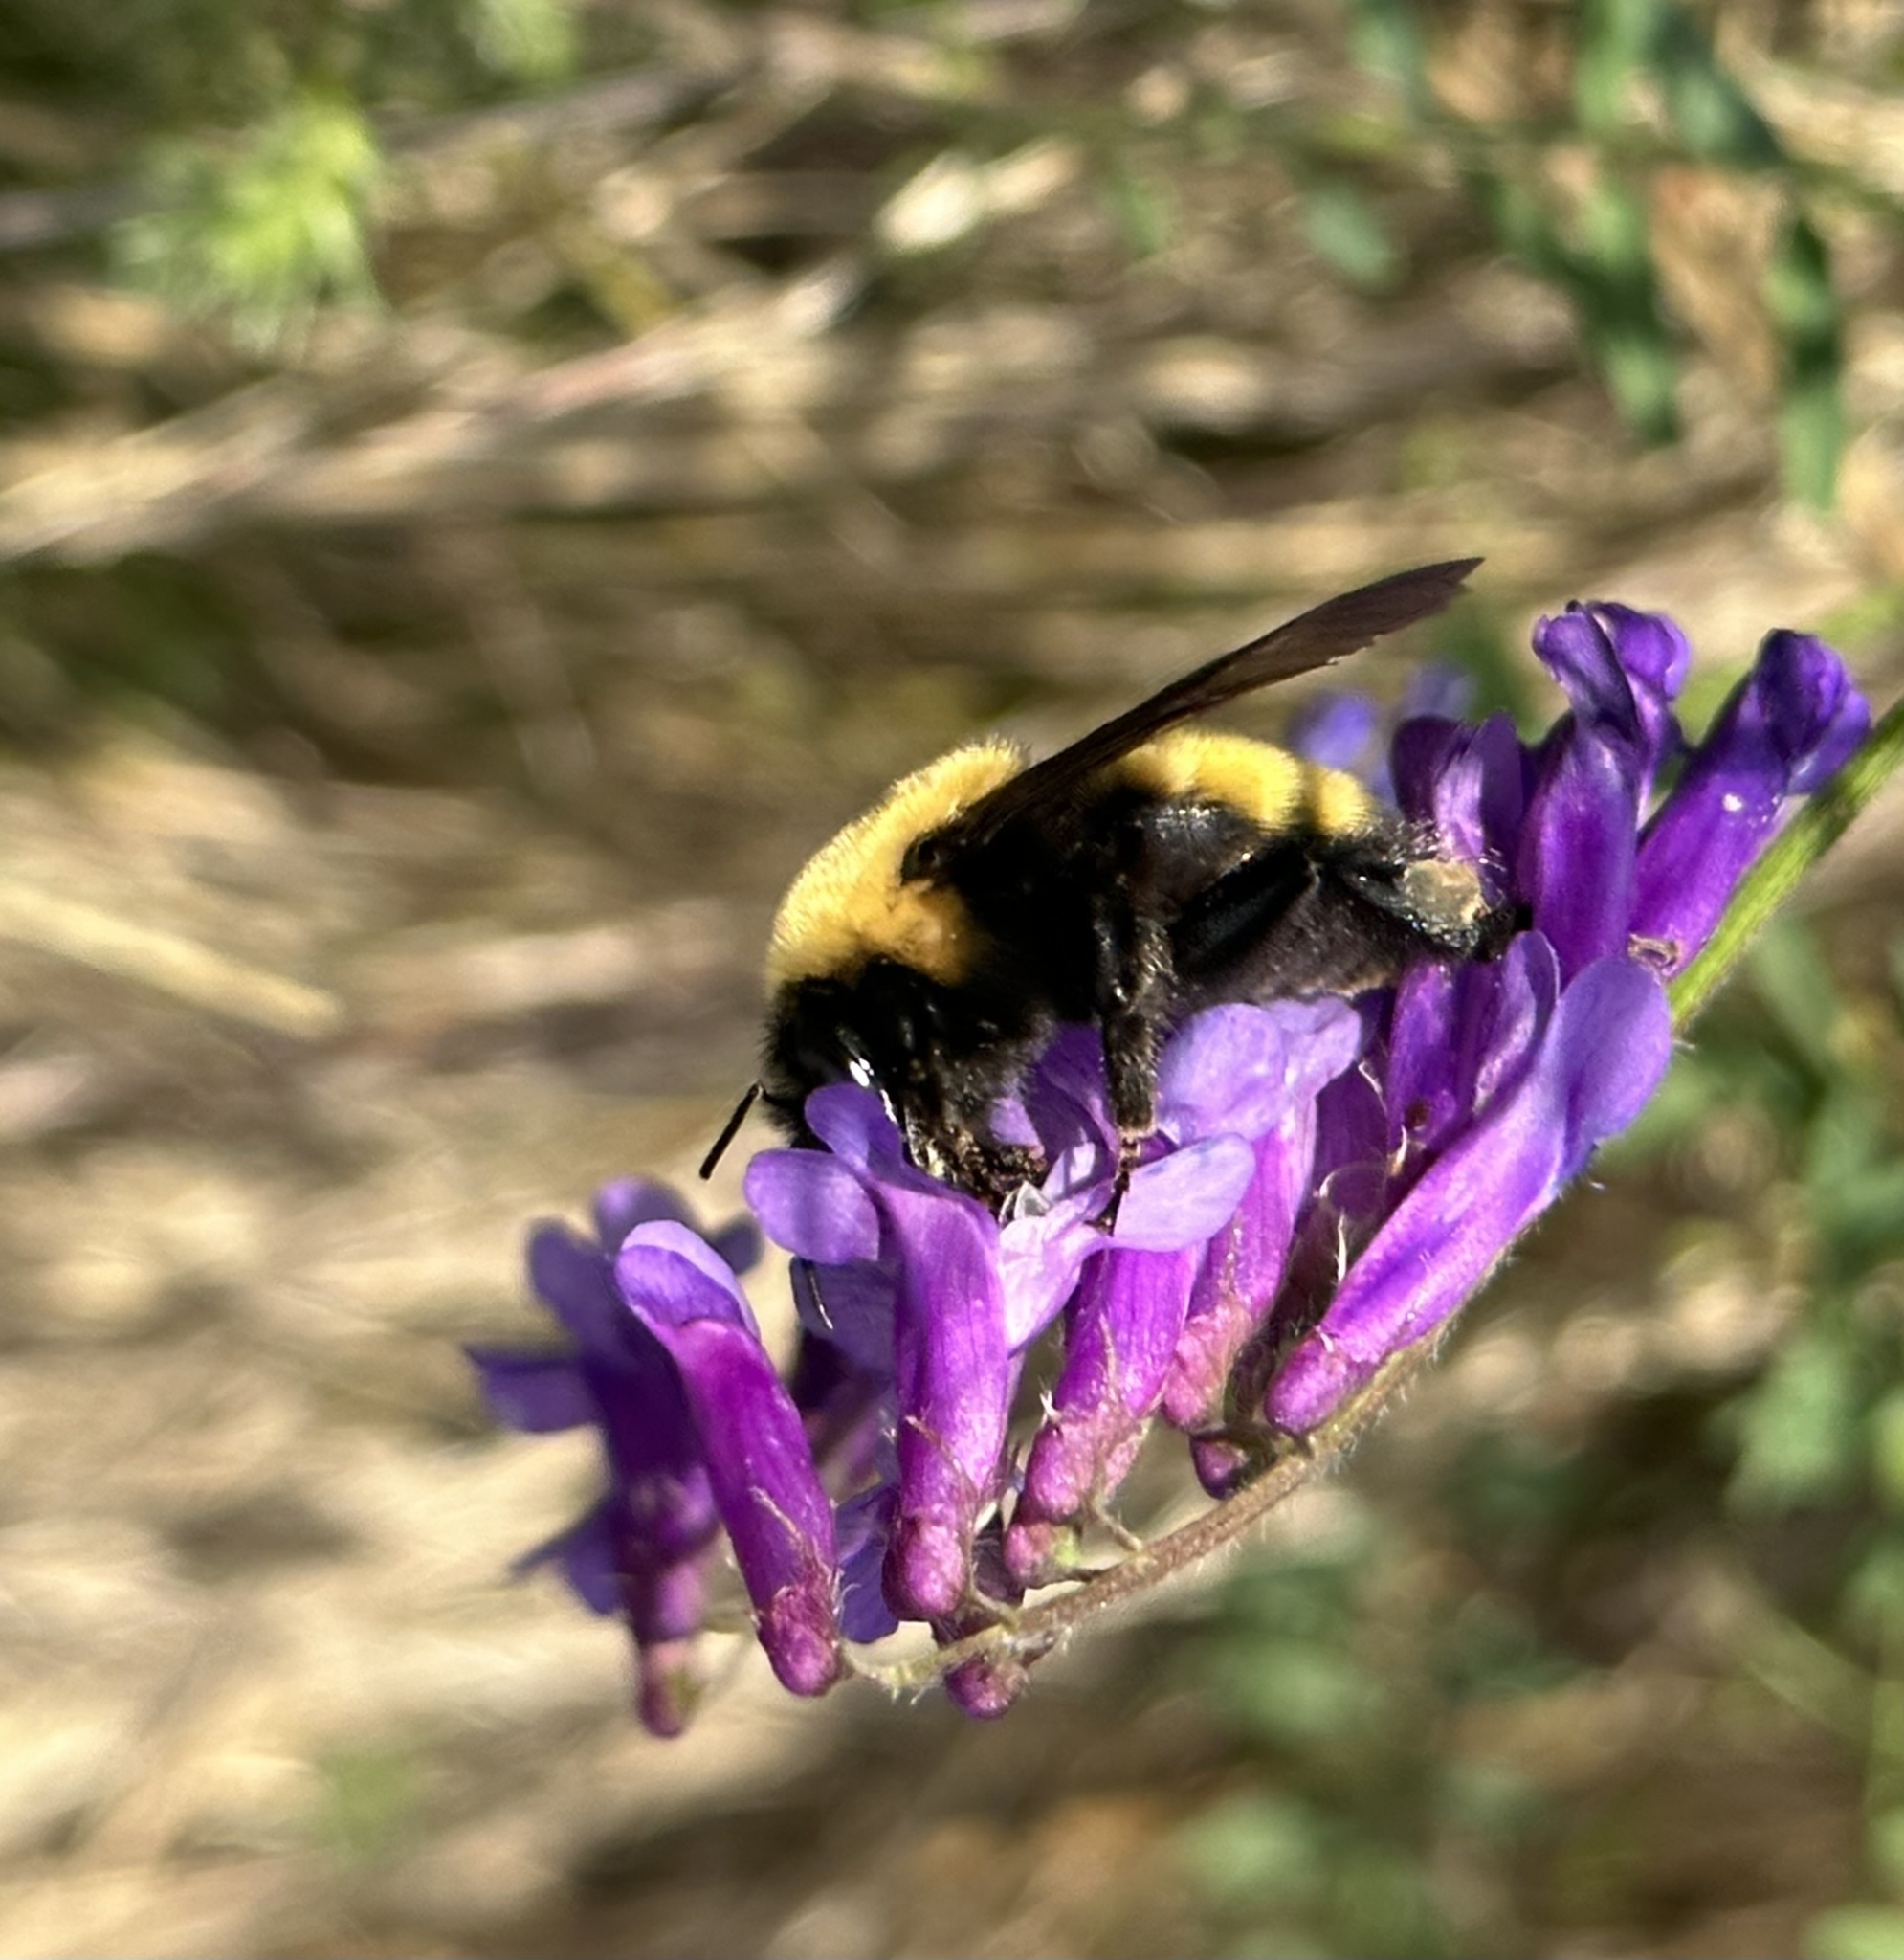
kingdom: Animalia
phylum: Arthropoda
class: Insecta
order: Hymenoptera
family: Apidae
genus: Bombus
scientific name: Bombus nevadensis
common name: Nevada bumble bee
